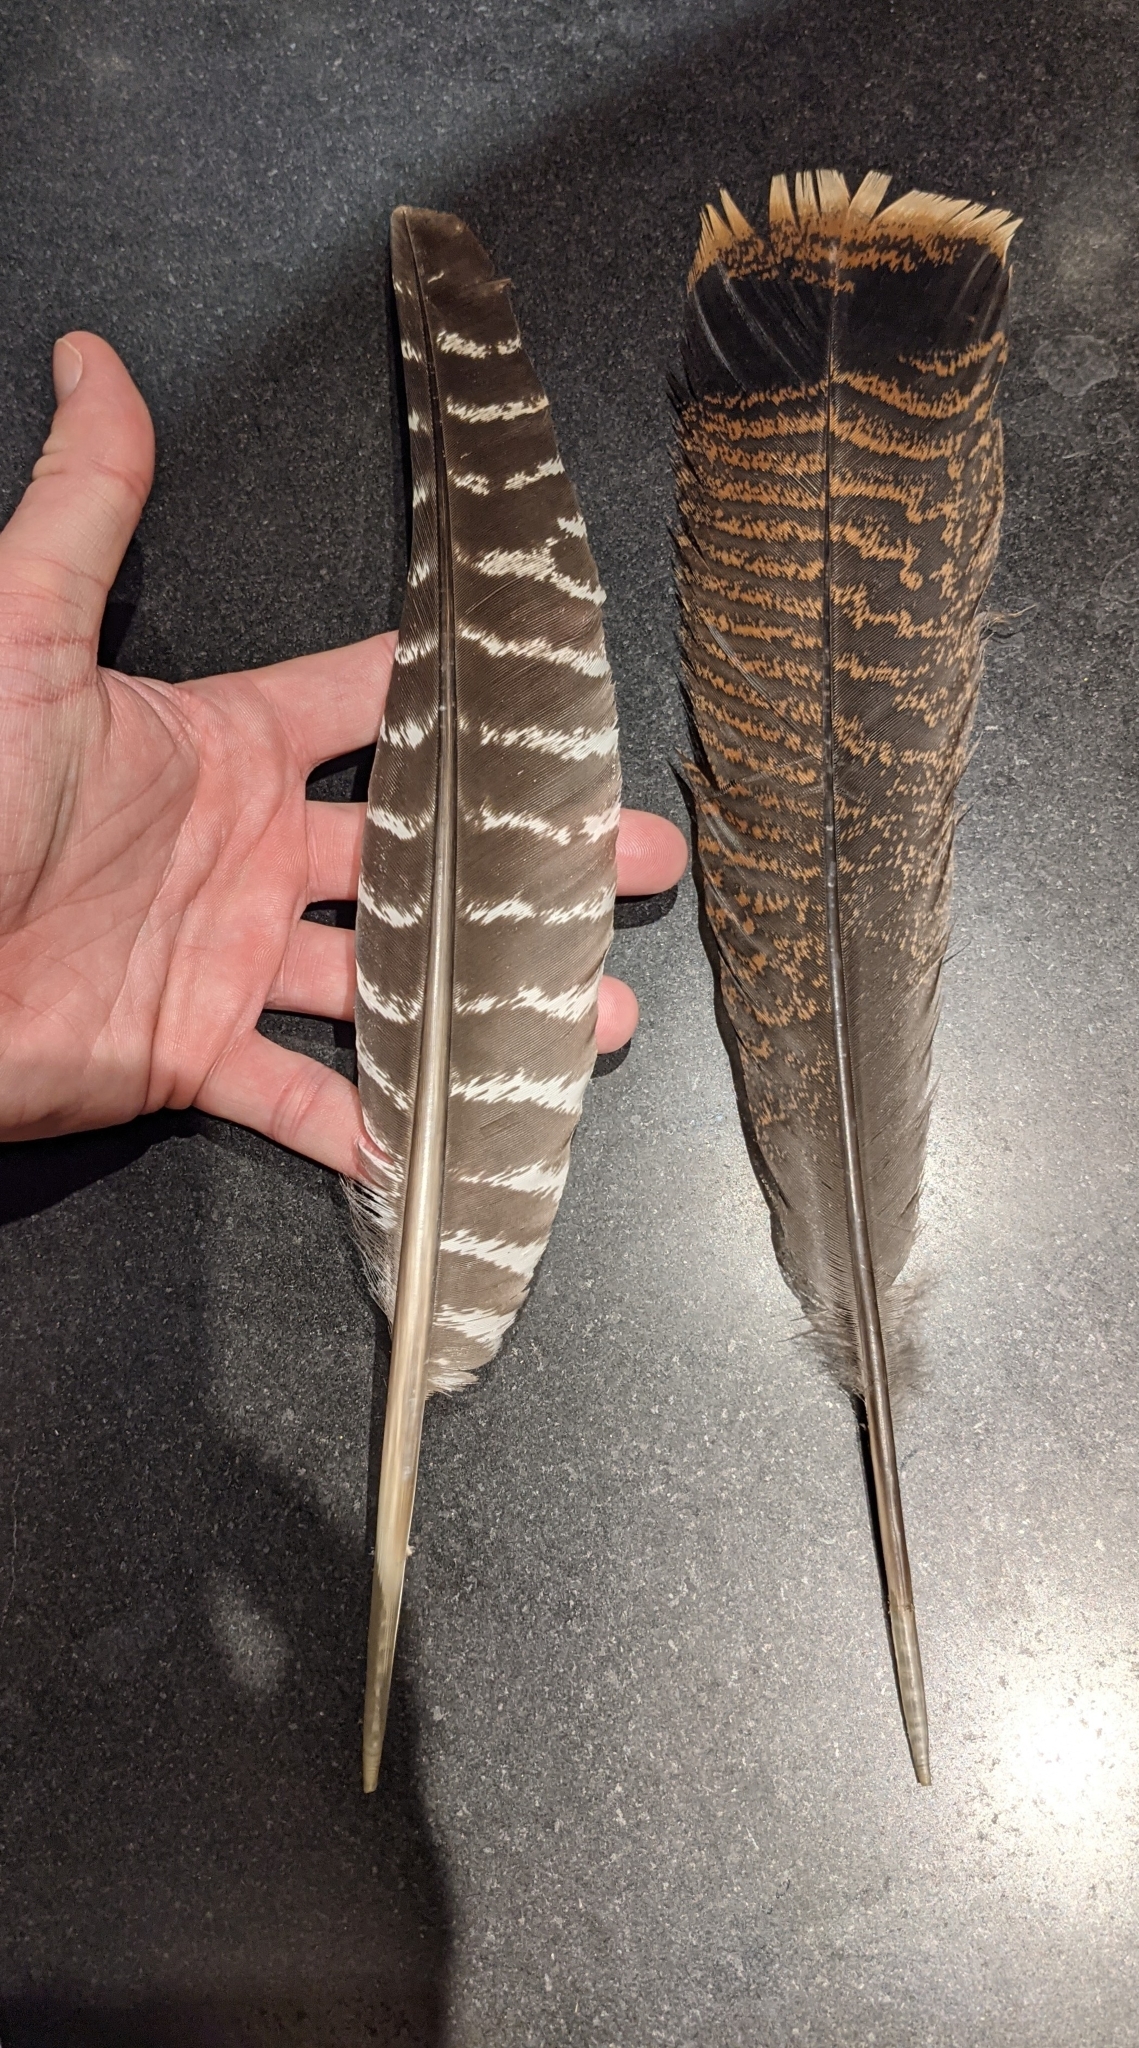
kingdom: Animalia
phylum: Chordata
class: Aves
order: Galliformes
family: Phasianidae
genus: Meleagris
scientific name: Meleagris gallopavo
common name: Wild turkey
